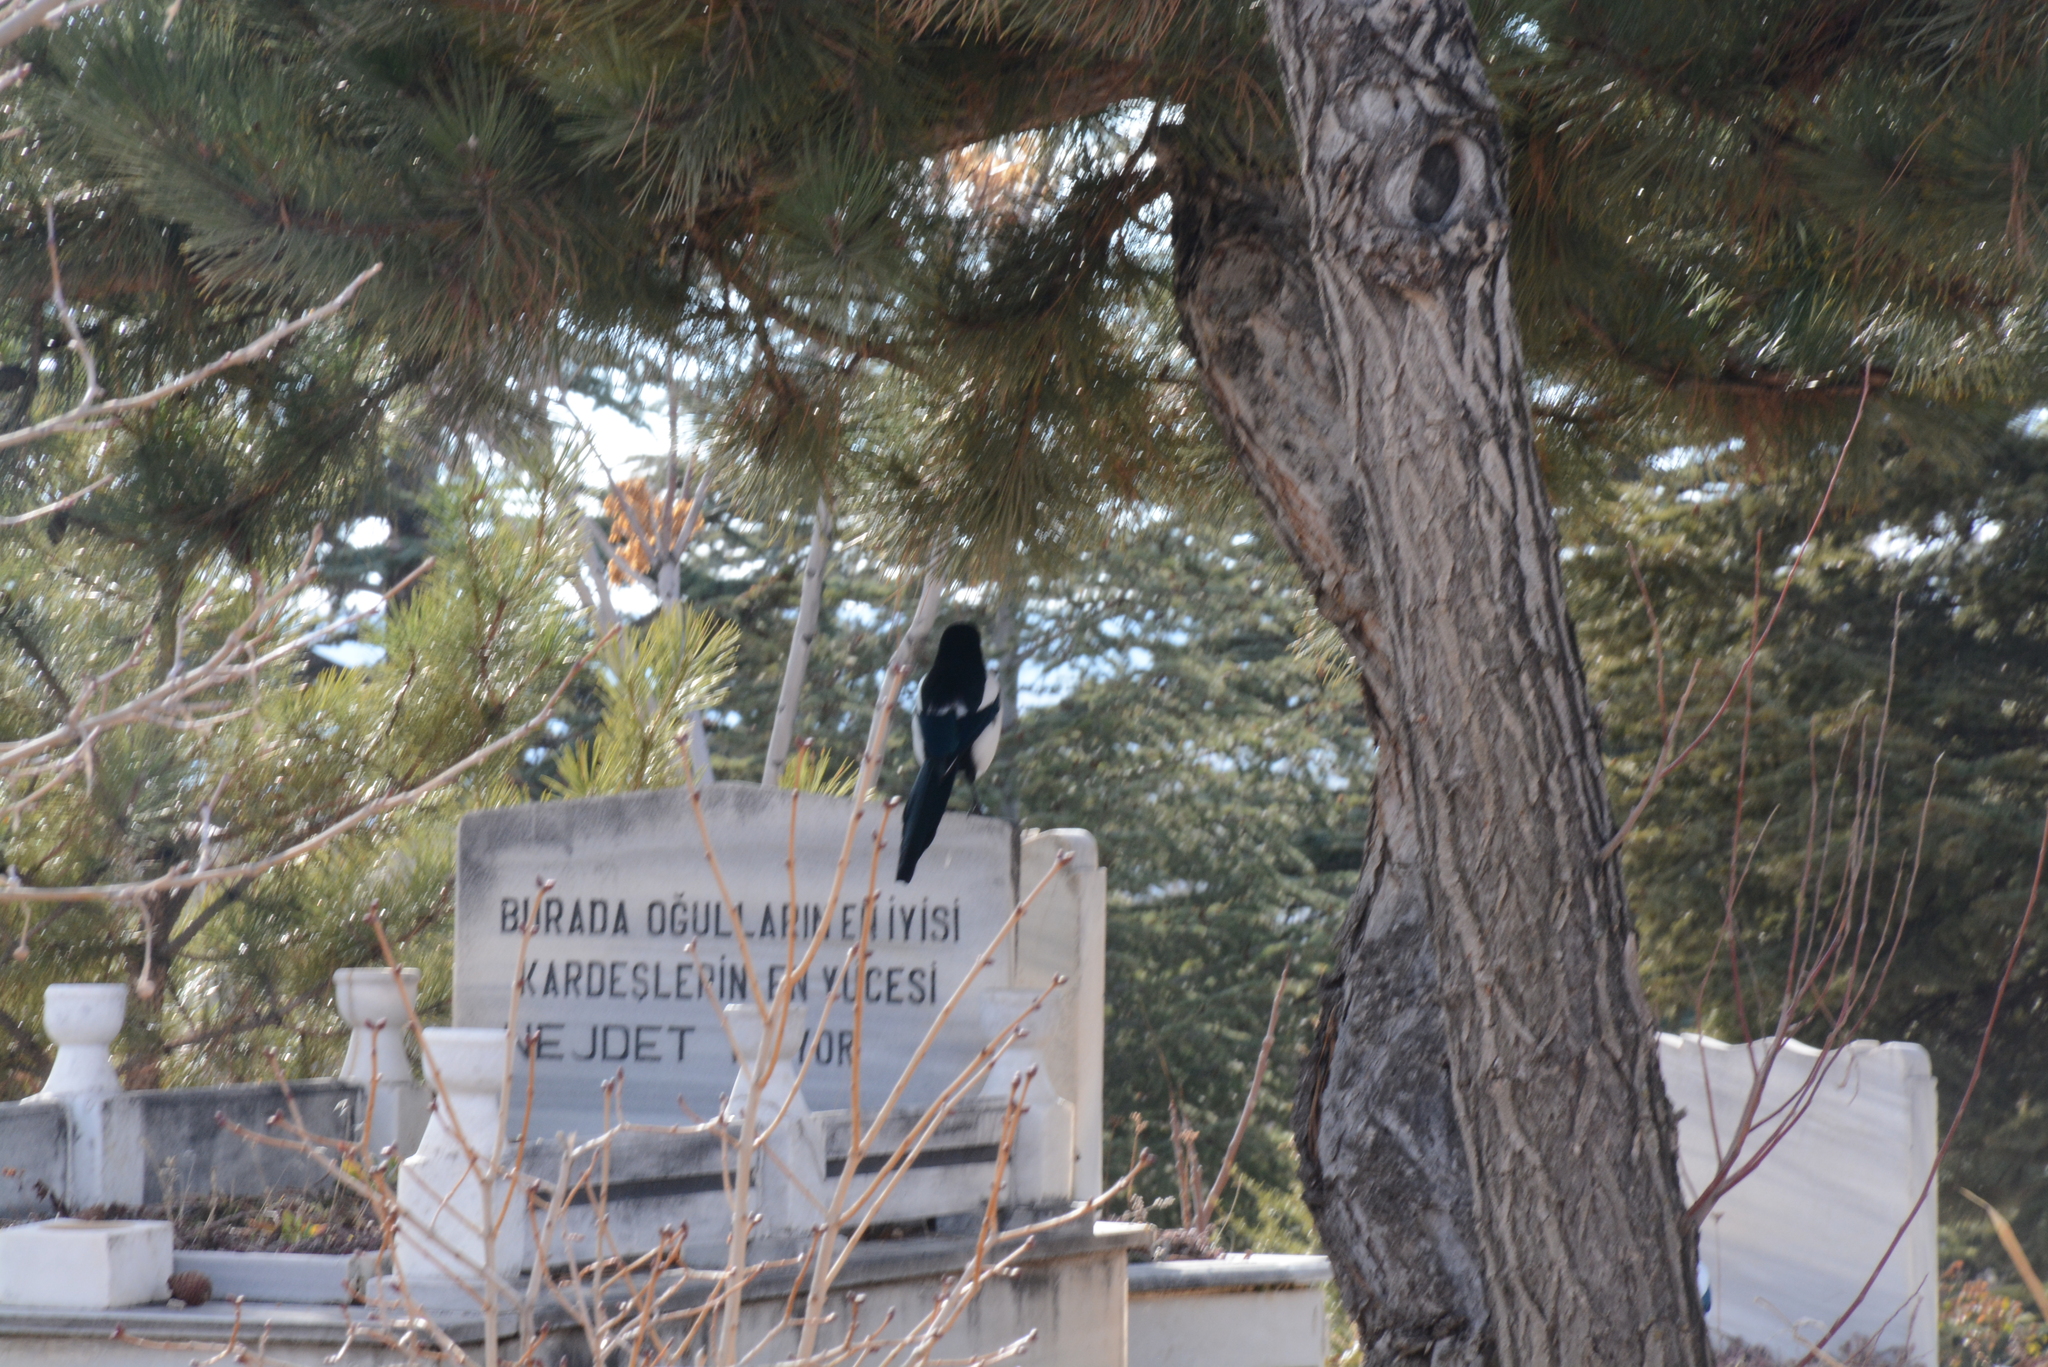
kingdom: Animalia
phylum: Chordata
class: Aves
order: Passeriformes
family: Corvidae
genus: Pica
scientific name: Pica pica
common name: Eurasian magpie
